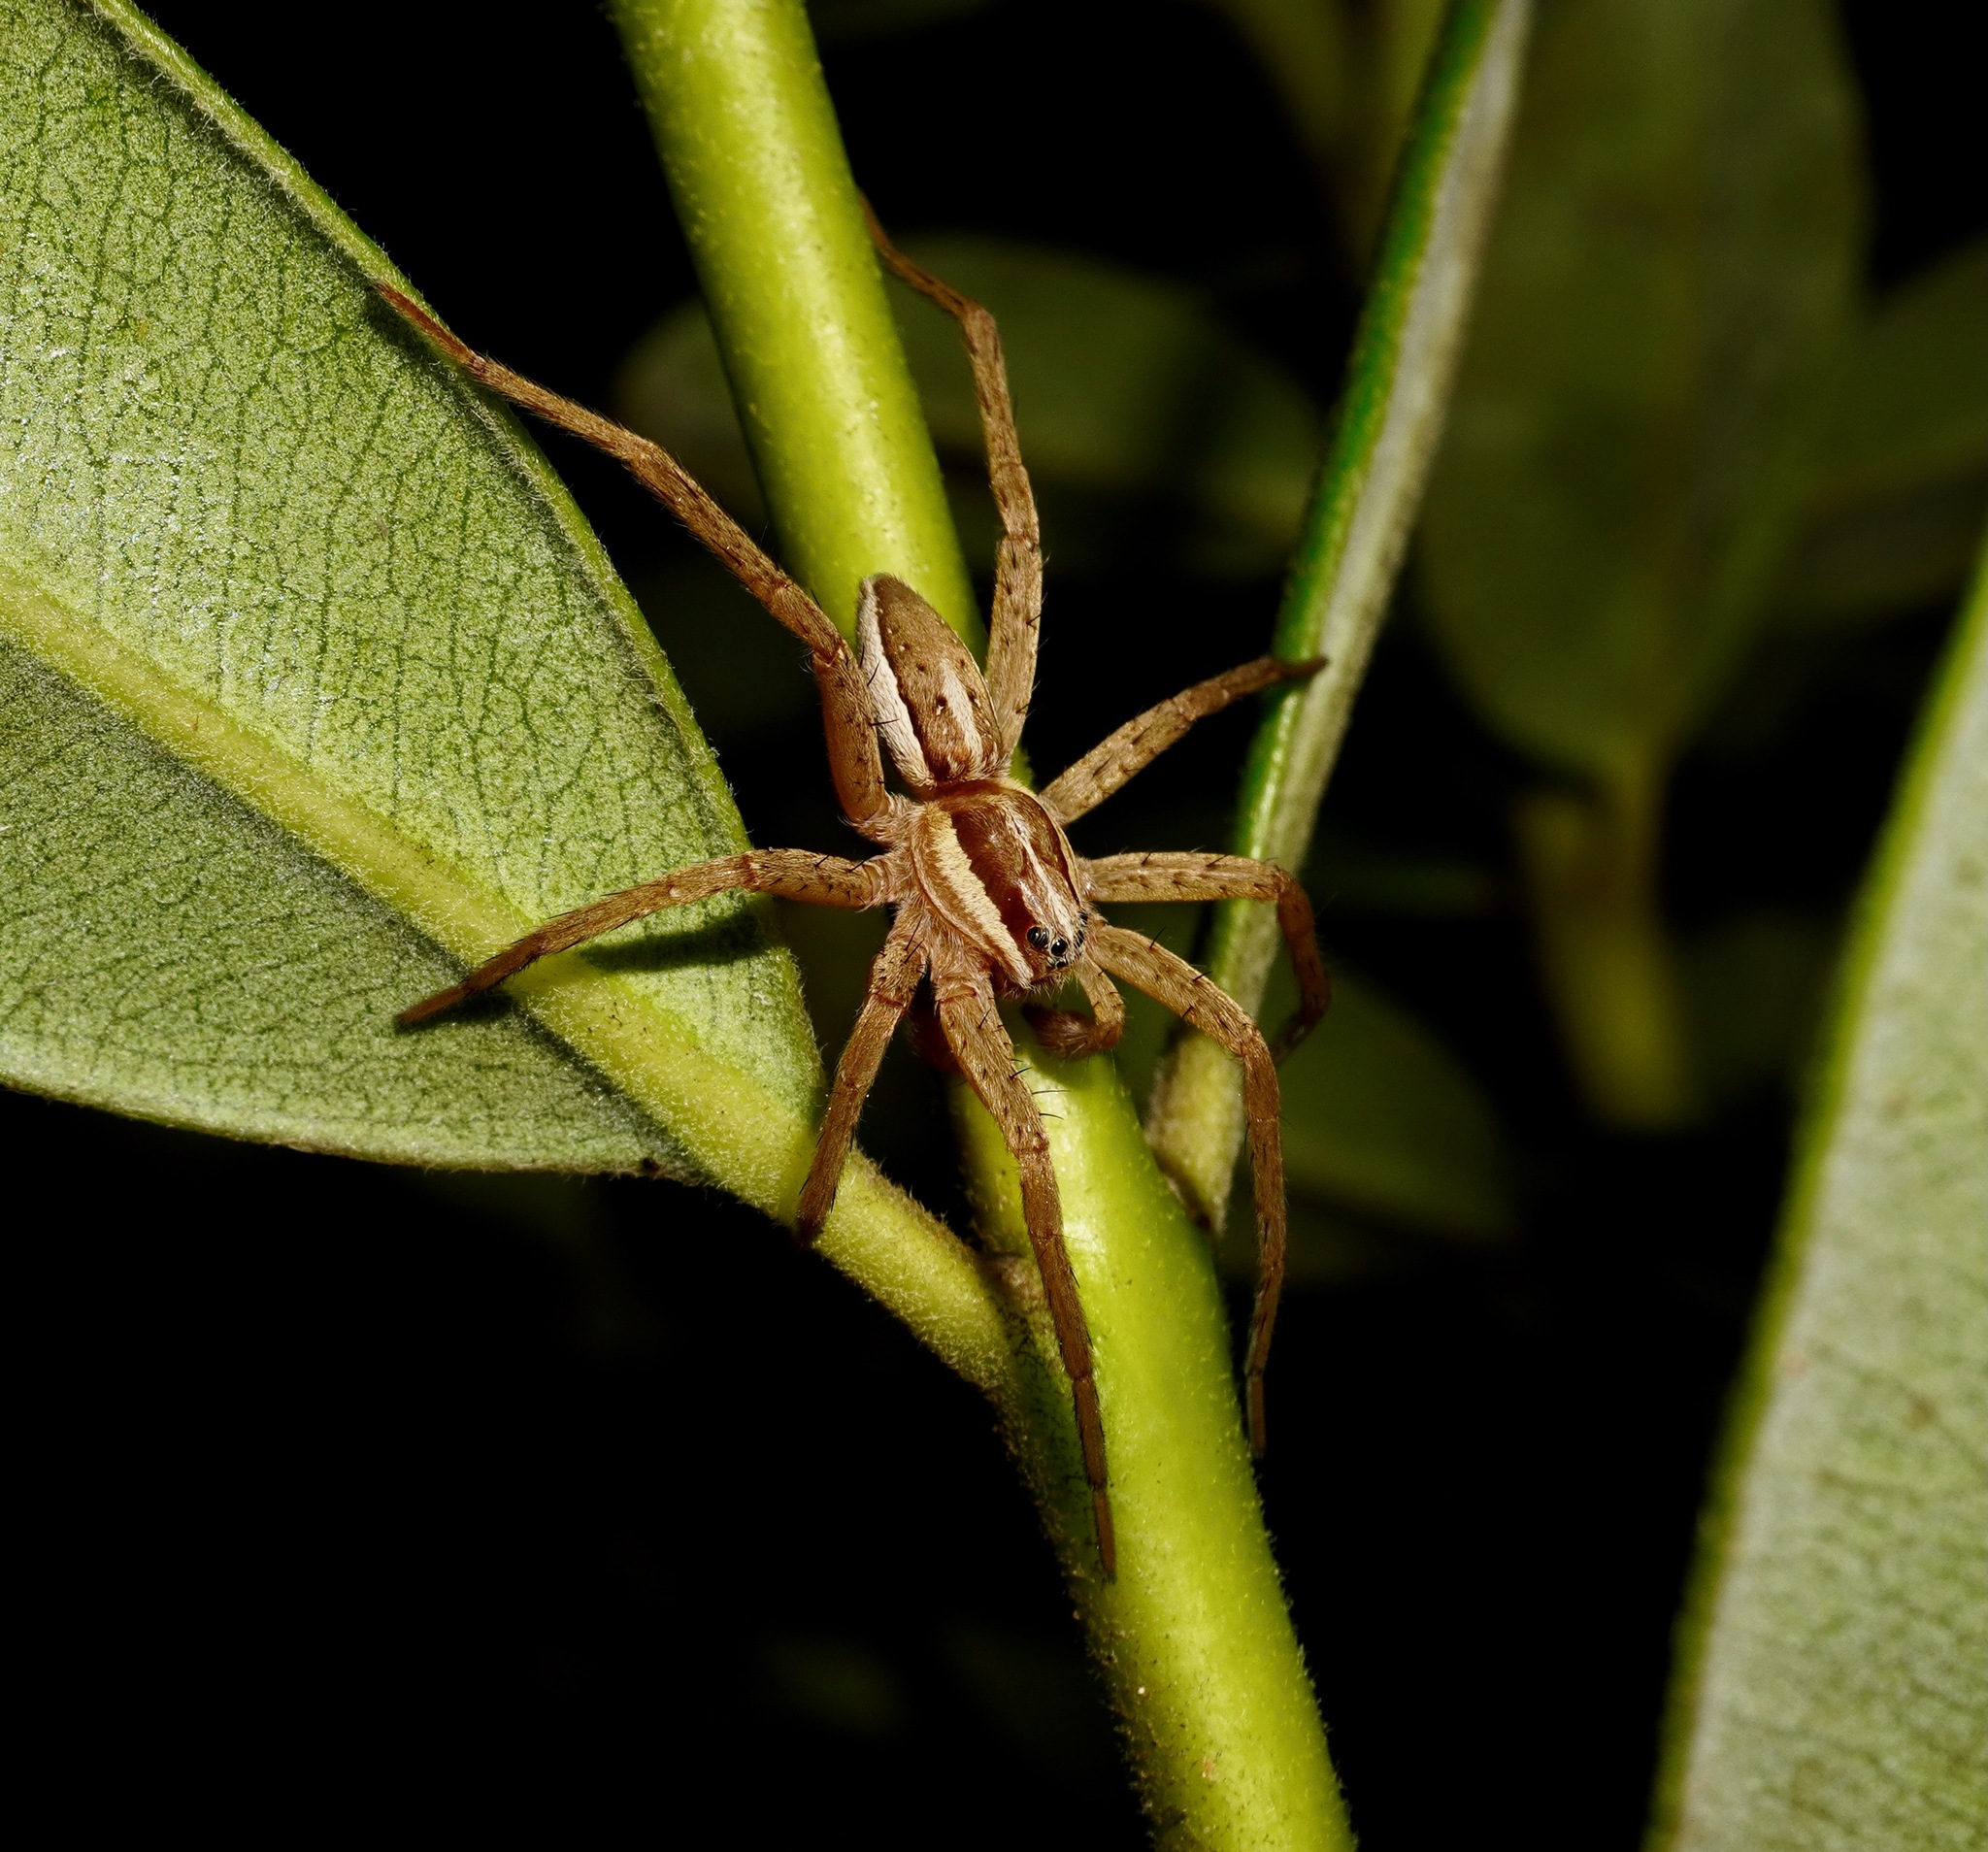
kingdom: Animalia
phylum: Arthropoda
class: Arachnida
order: Araneae
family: Pisauridae
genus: Dolomedes
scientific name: Dolomedes minor
